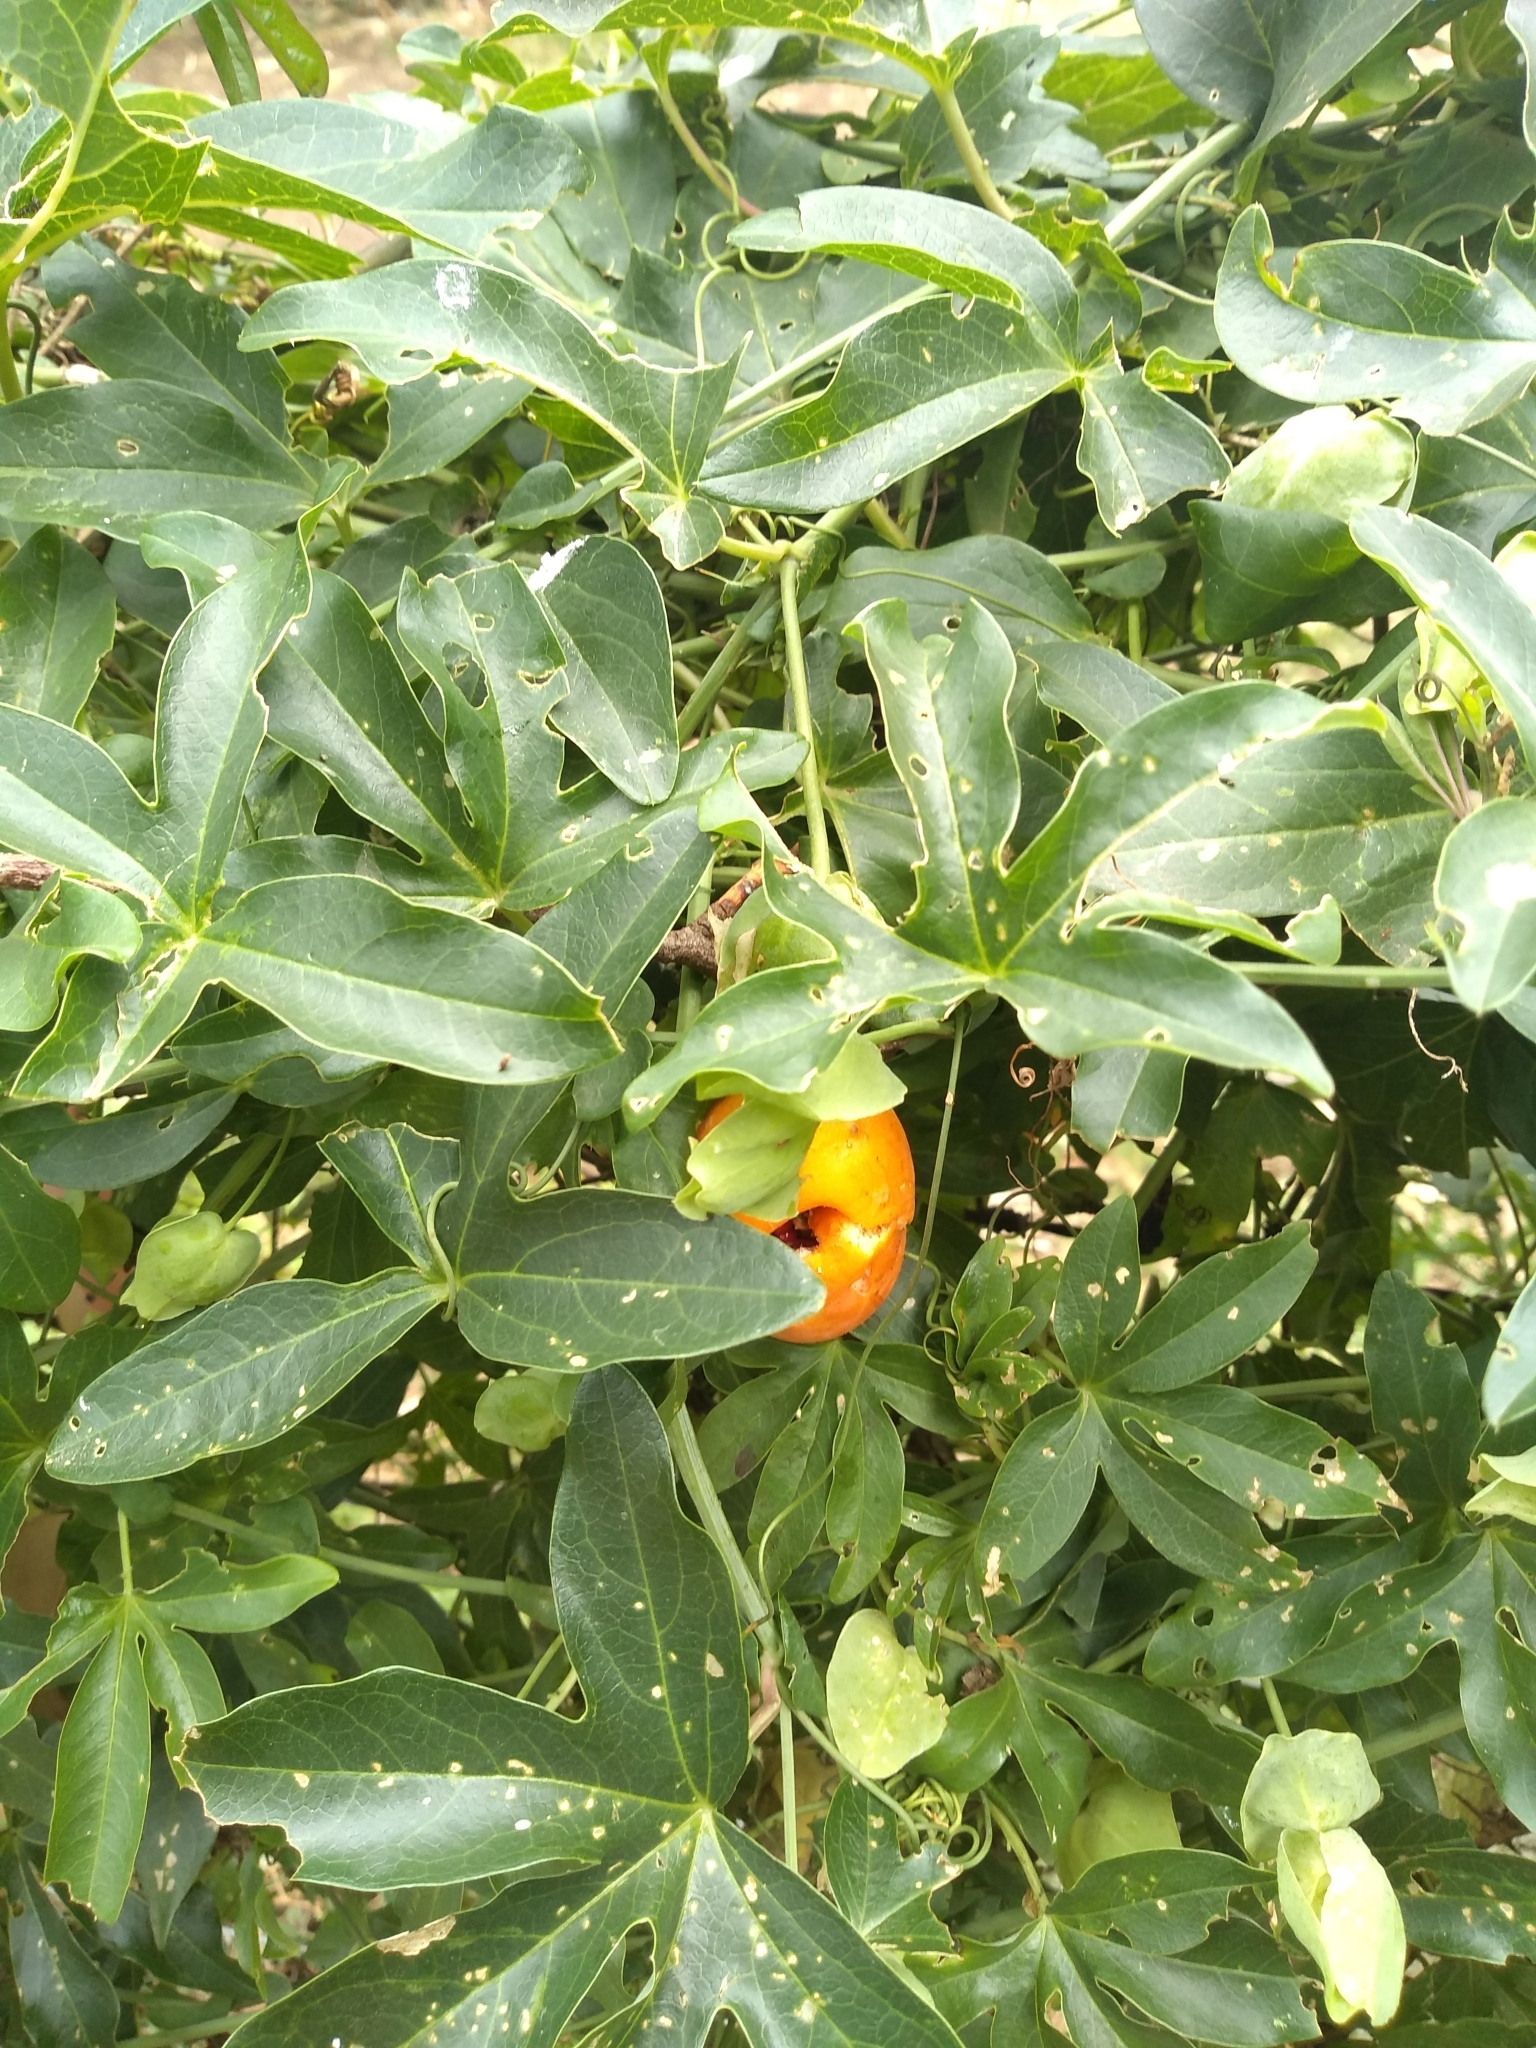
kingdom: Plantae
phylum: Tracheophyta
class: Magnoliopsida
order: Malpighiales
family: Passifloraceae
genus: Passiflora
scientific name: Passiflora caerulea
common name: Blue passionflower
